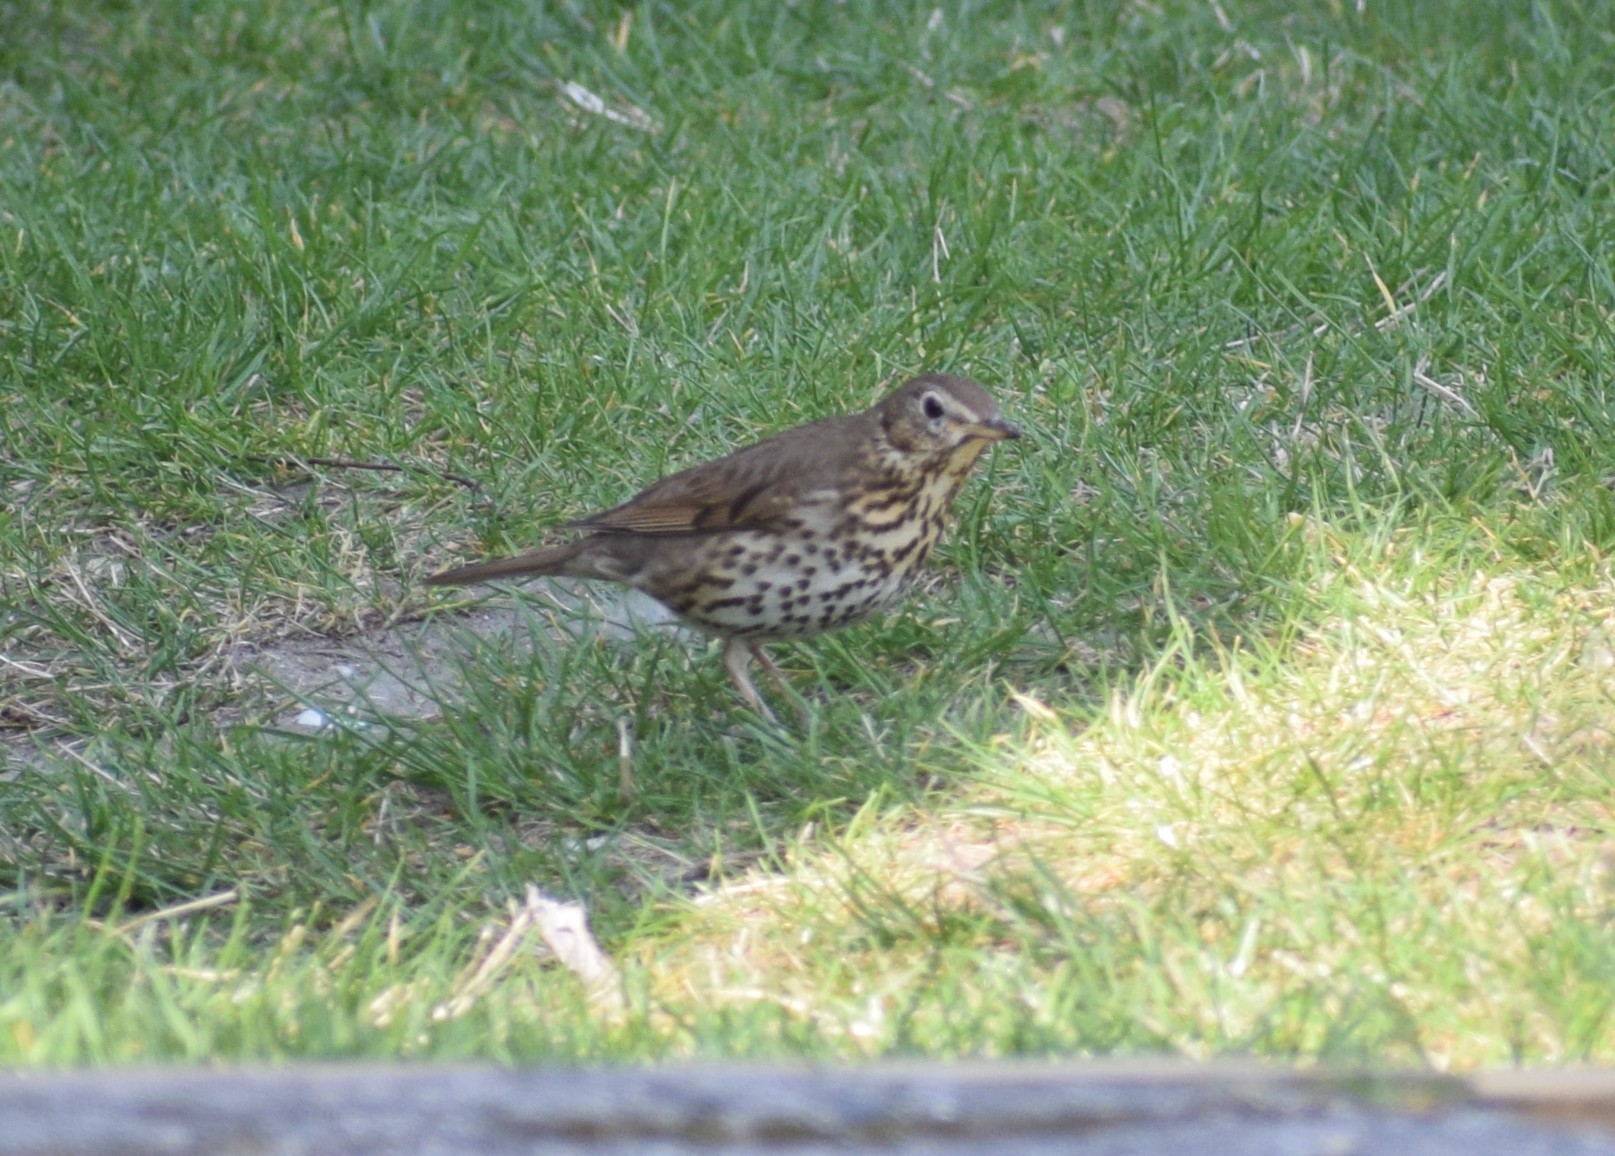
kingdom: Animalia
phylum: Chordata
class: Aves
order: Passeriformes
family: Turdidae
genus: Turdus
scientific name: Turdus philomelos
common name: Song thrush
